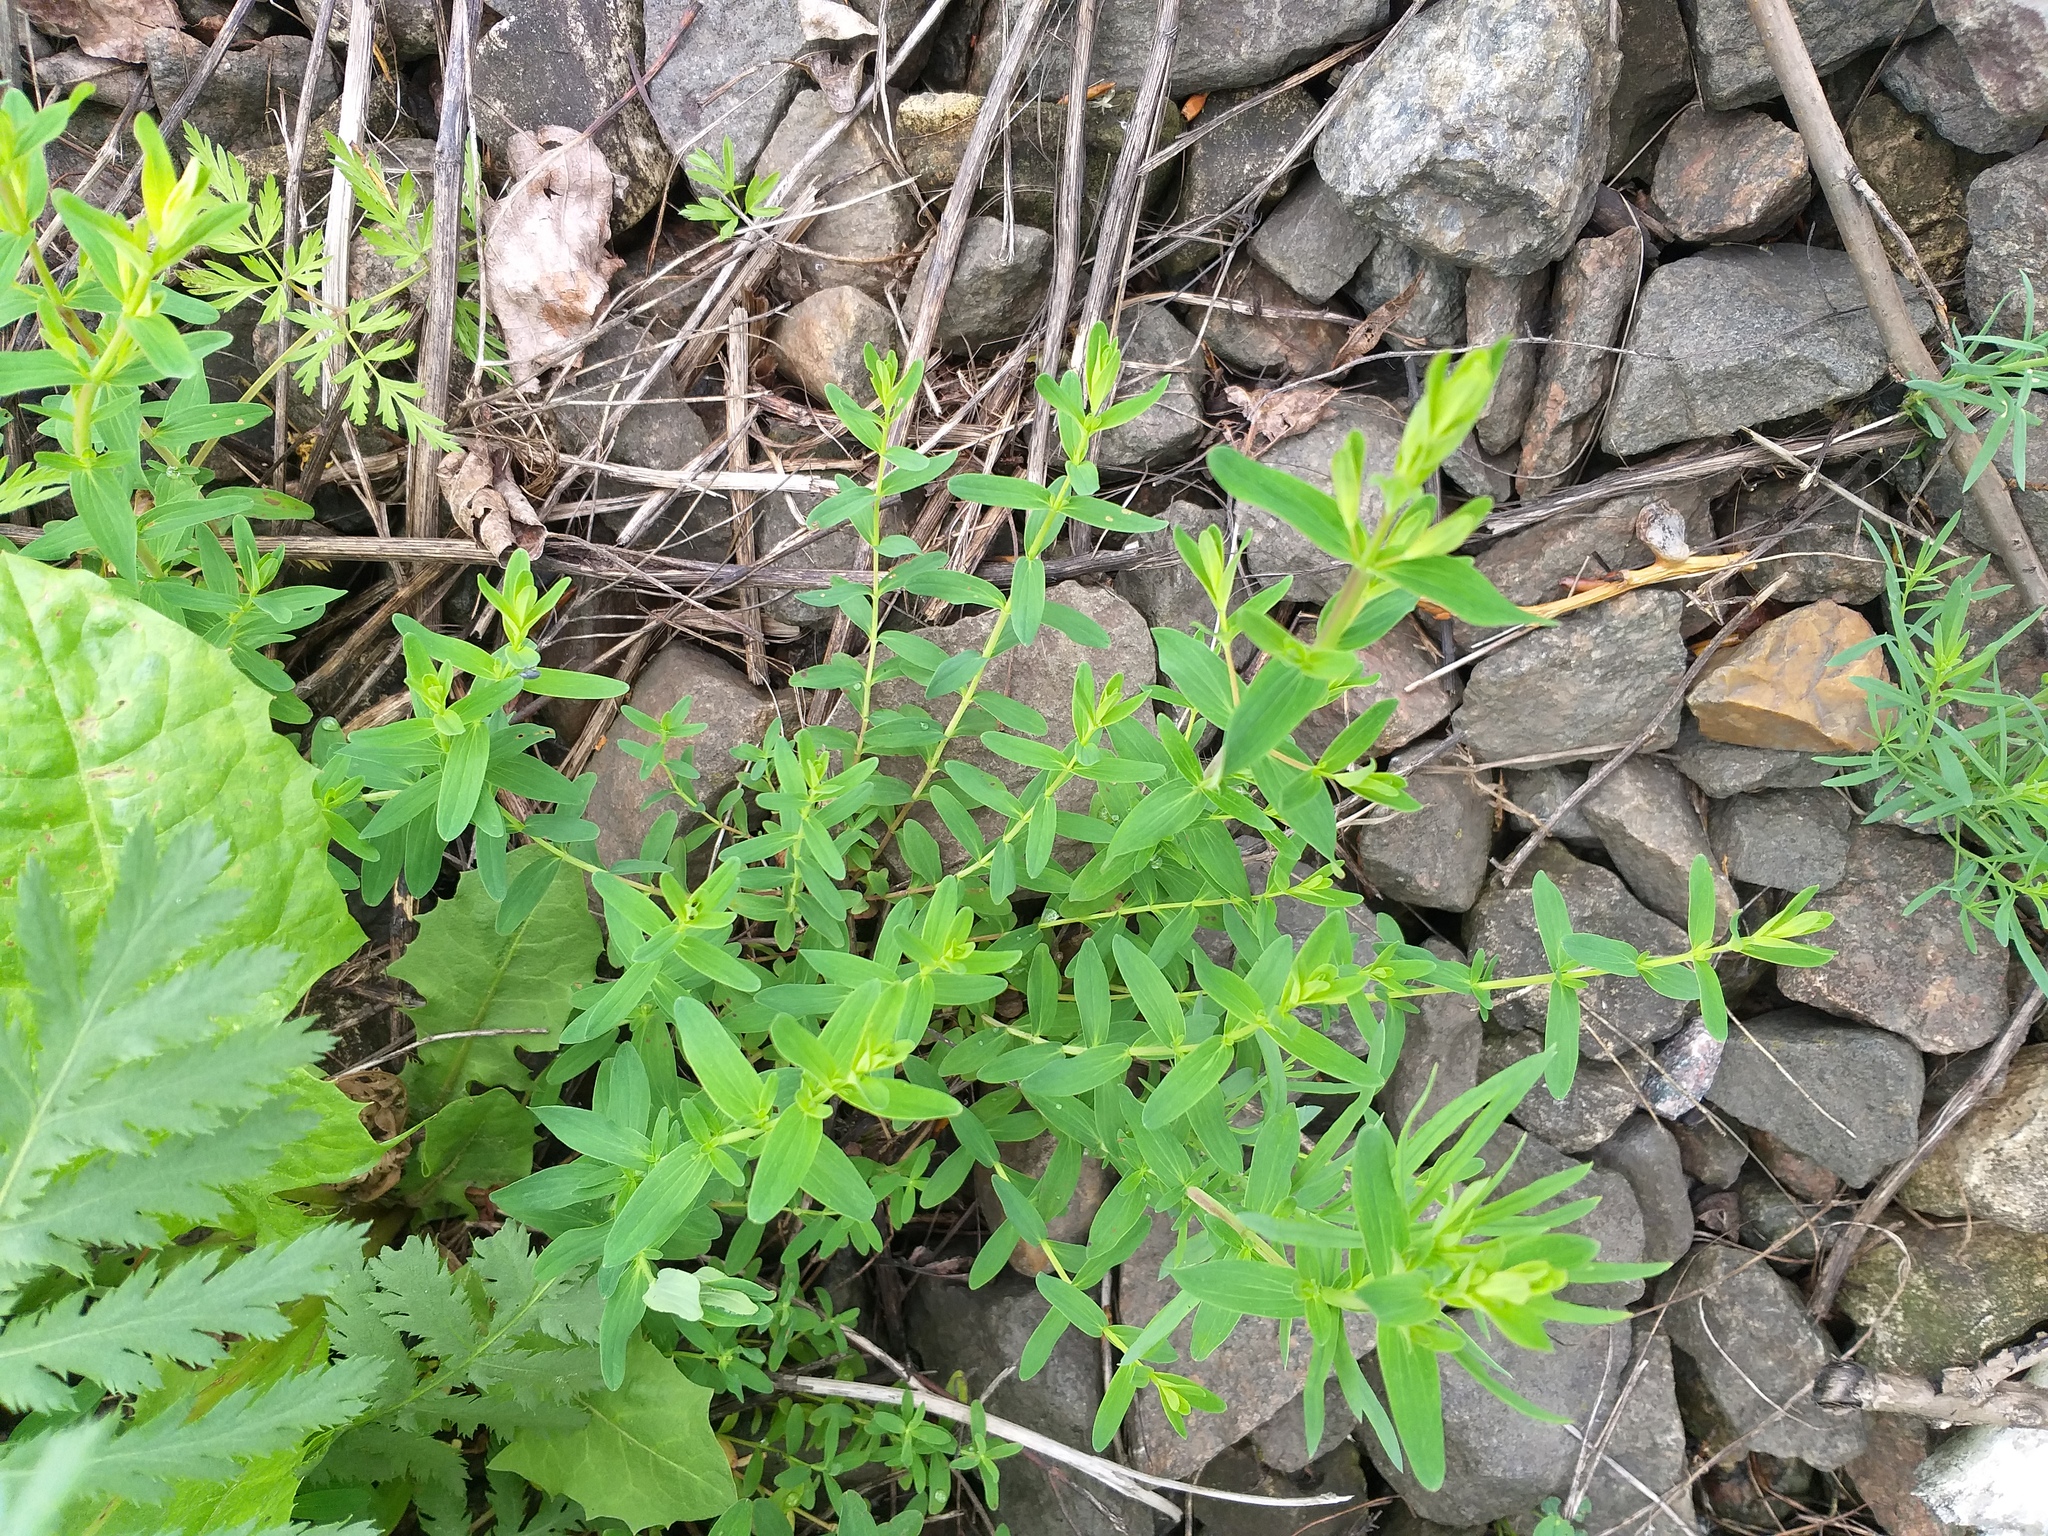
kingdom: Plantae
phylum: Tracheophyta
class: Magnoliopsida
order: Malpighiales
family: Hypericaceae
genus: Hypericum
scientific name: Hypericum perforatum
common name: Common st. johnswort
